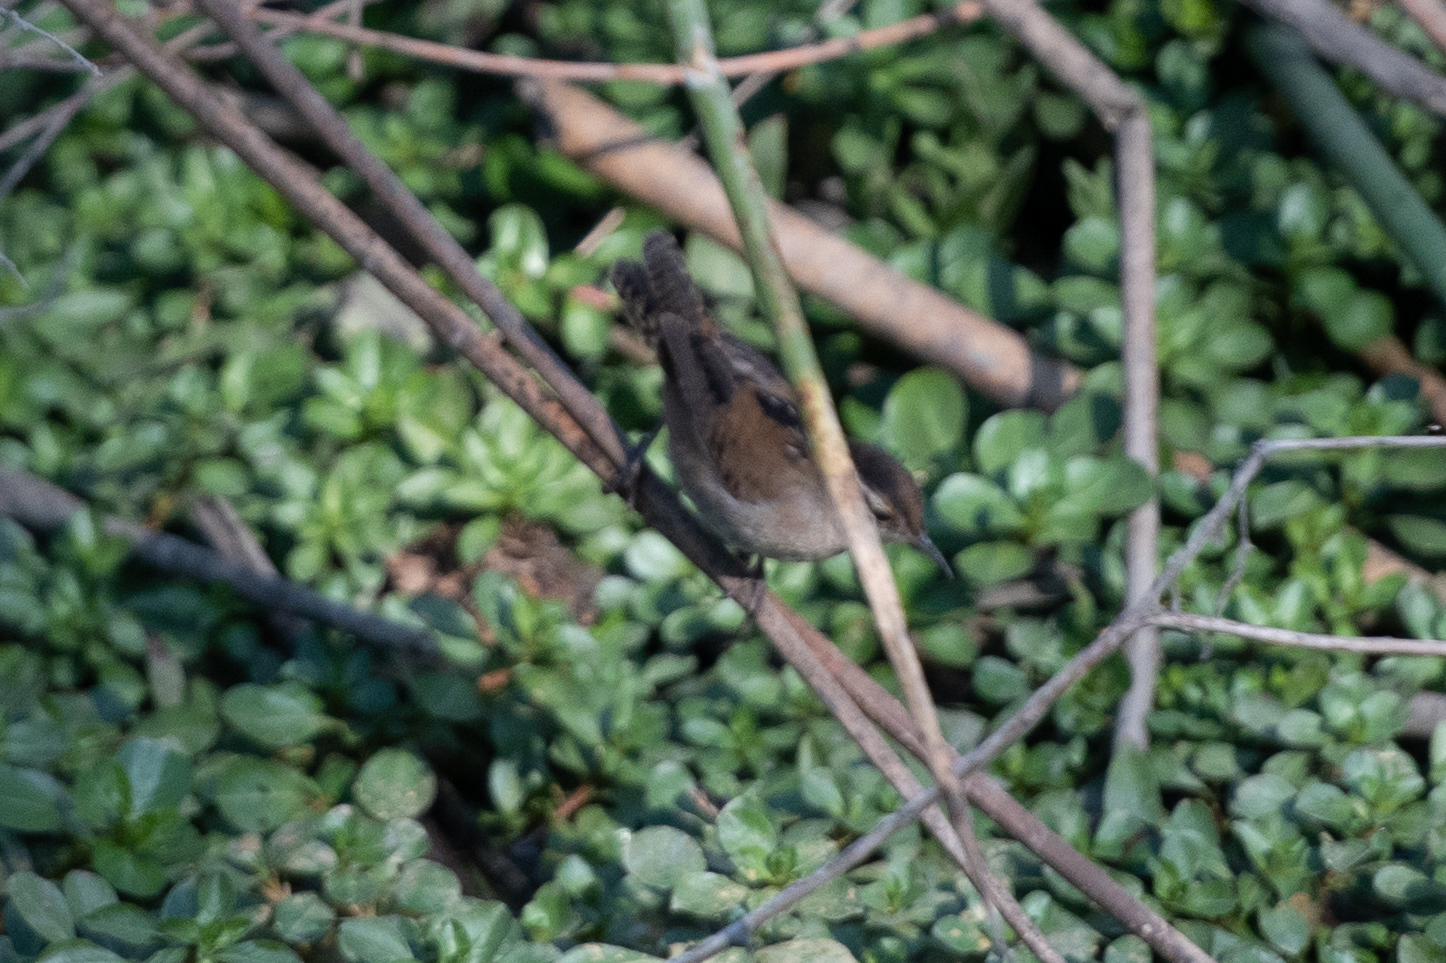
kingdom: Animalia
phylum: Chordata
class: Aves
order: Passeriformes
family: Troglodytidae
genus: Cistothorus
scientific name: Cistothorus palustris
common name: Marsh wren
